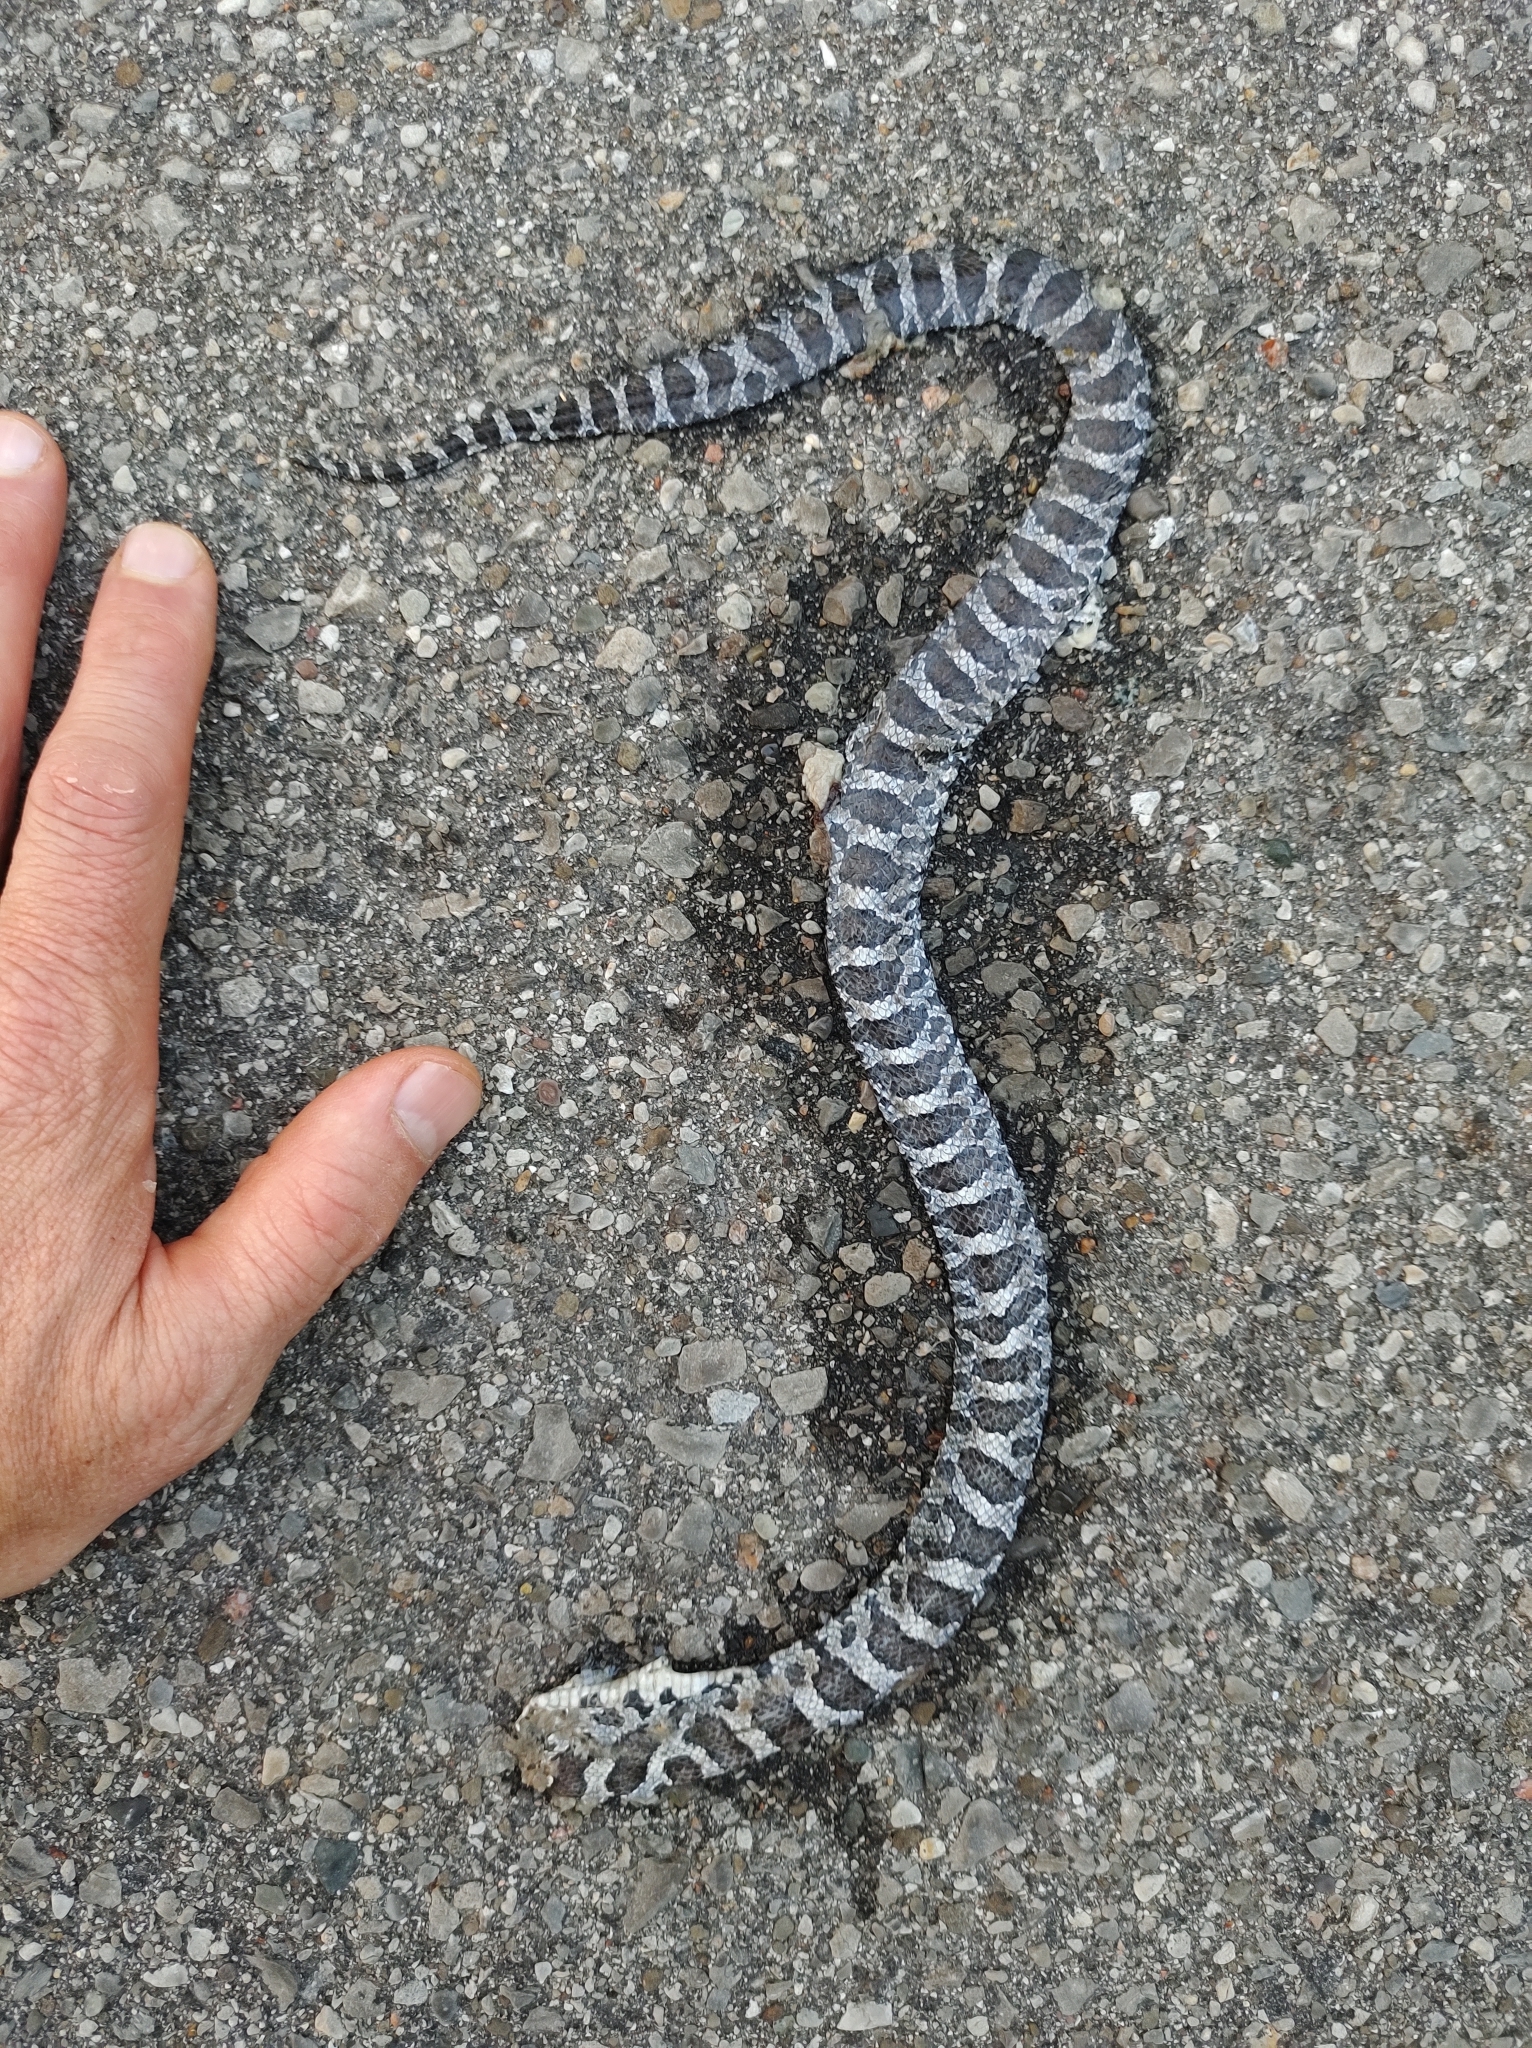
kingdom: Animalia
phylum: Chordata
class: Squamata
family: Colubridae
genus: Lampropeltis
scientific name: Lampropeltis triangulum
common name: Eastern milksnake
